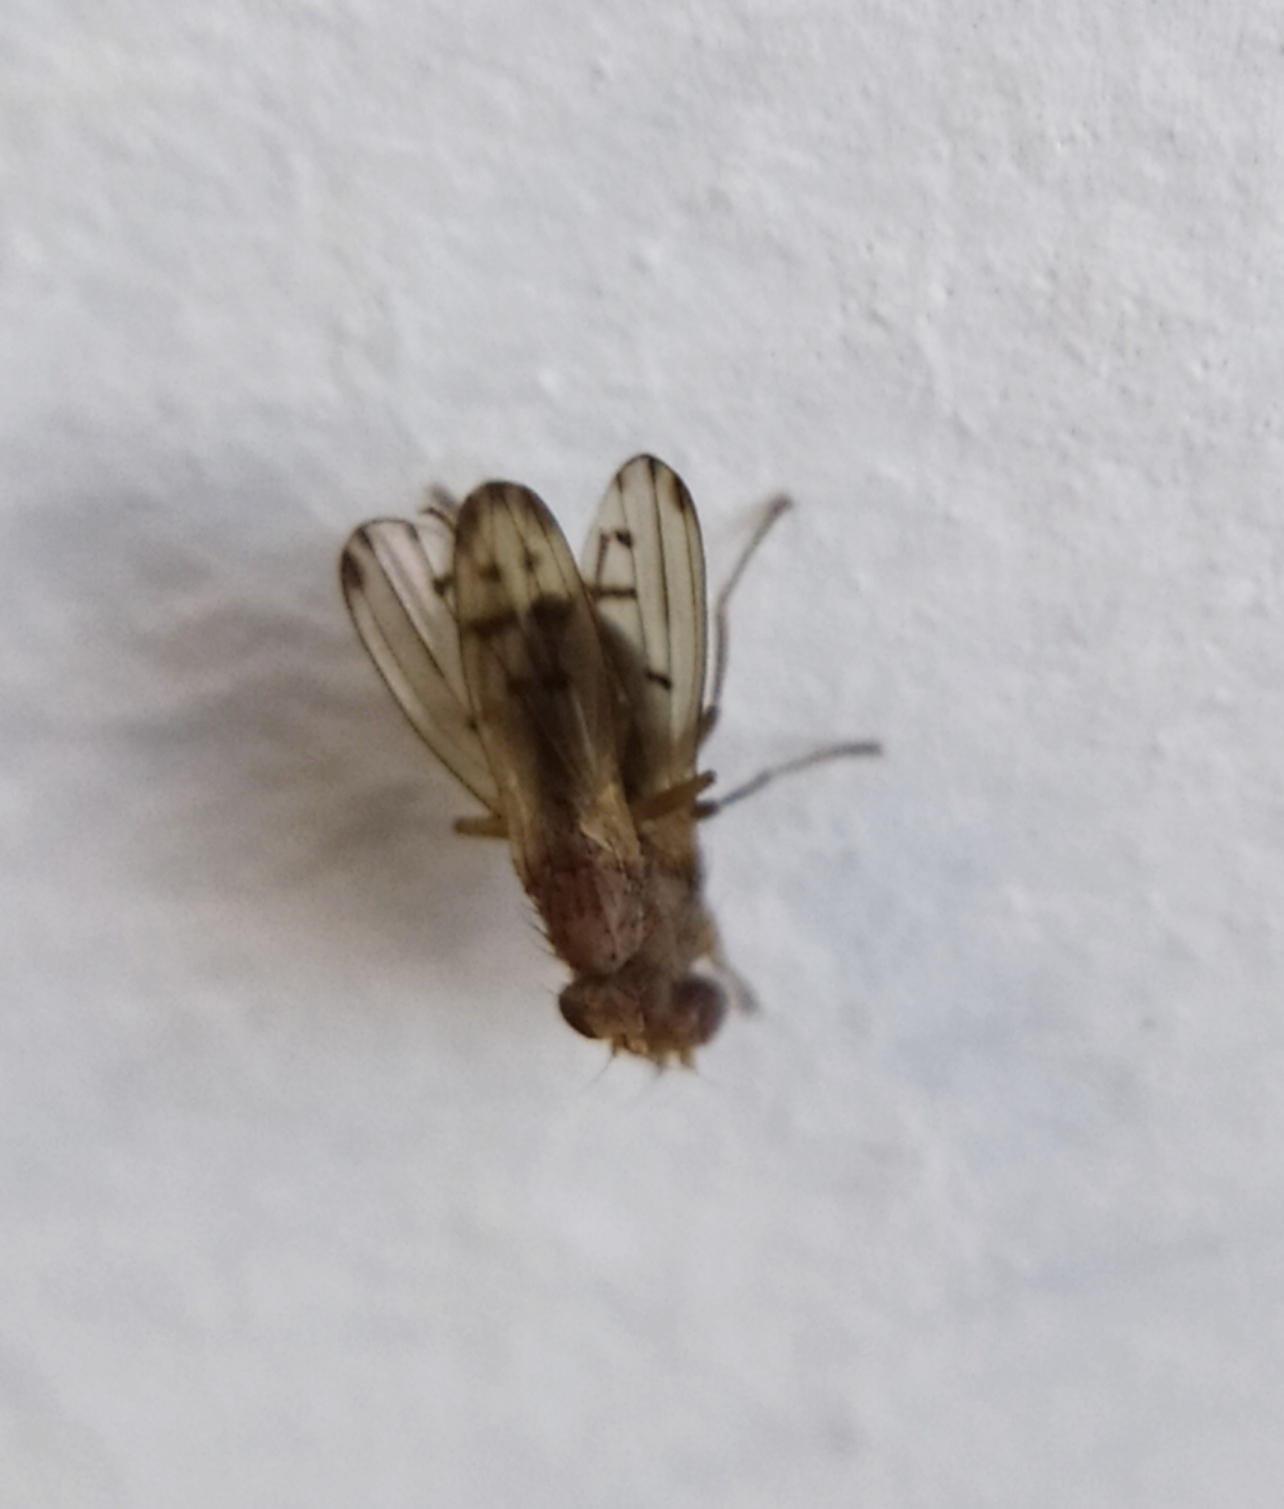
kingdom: Animalia
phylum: Arthropoda
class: Insecta
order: Diptera
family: Opomyzidae
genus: Opomyza
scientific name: Opomyza florum
